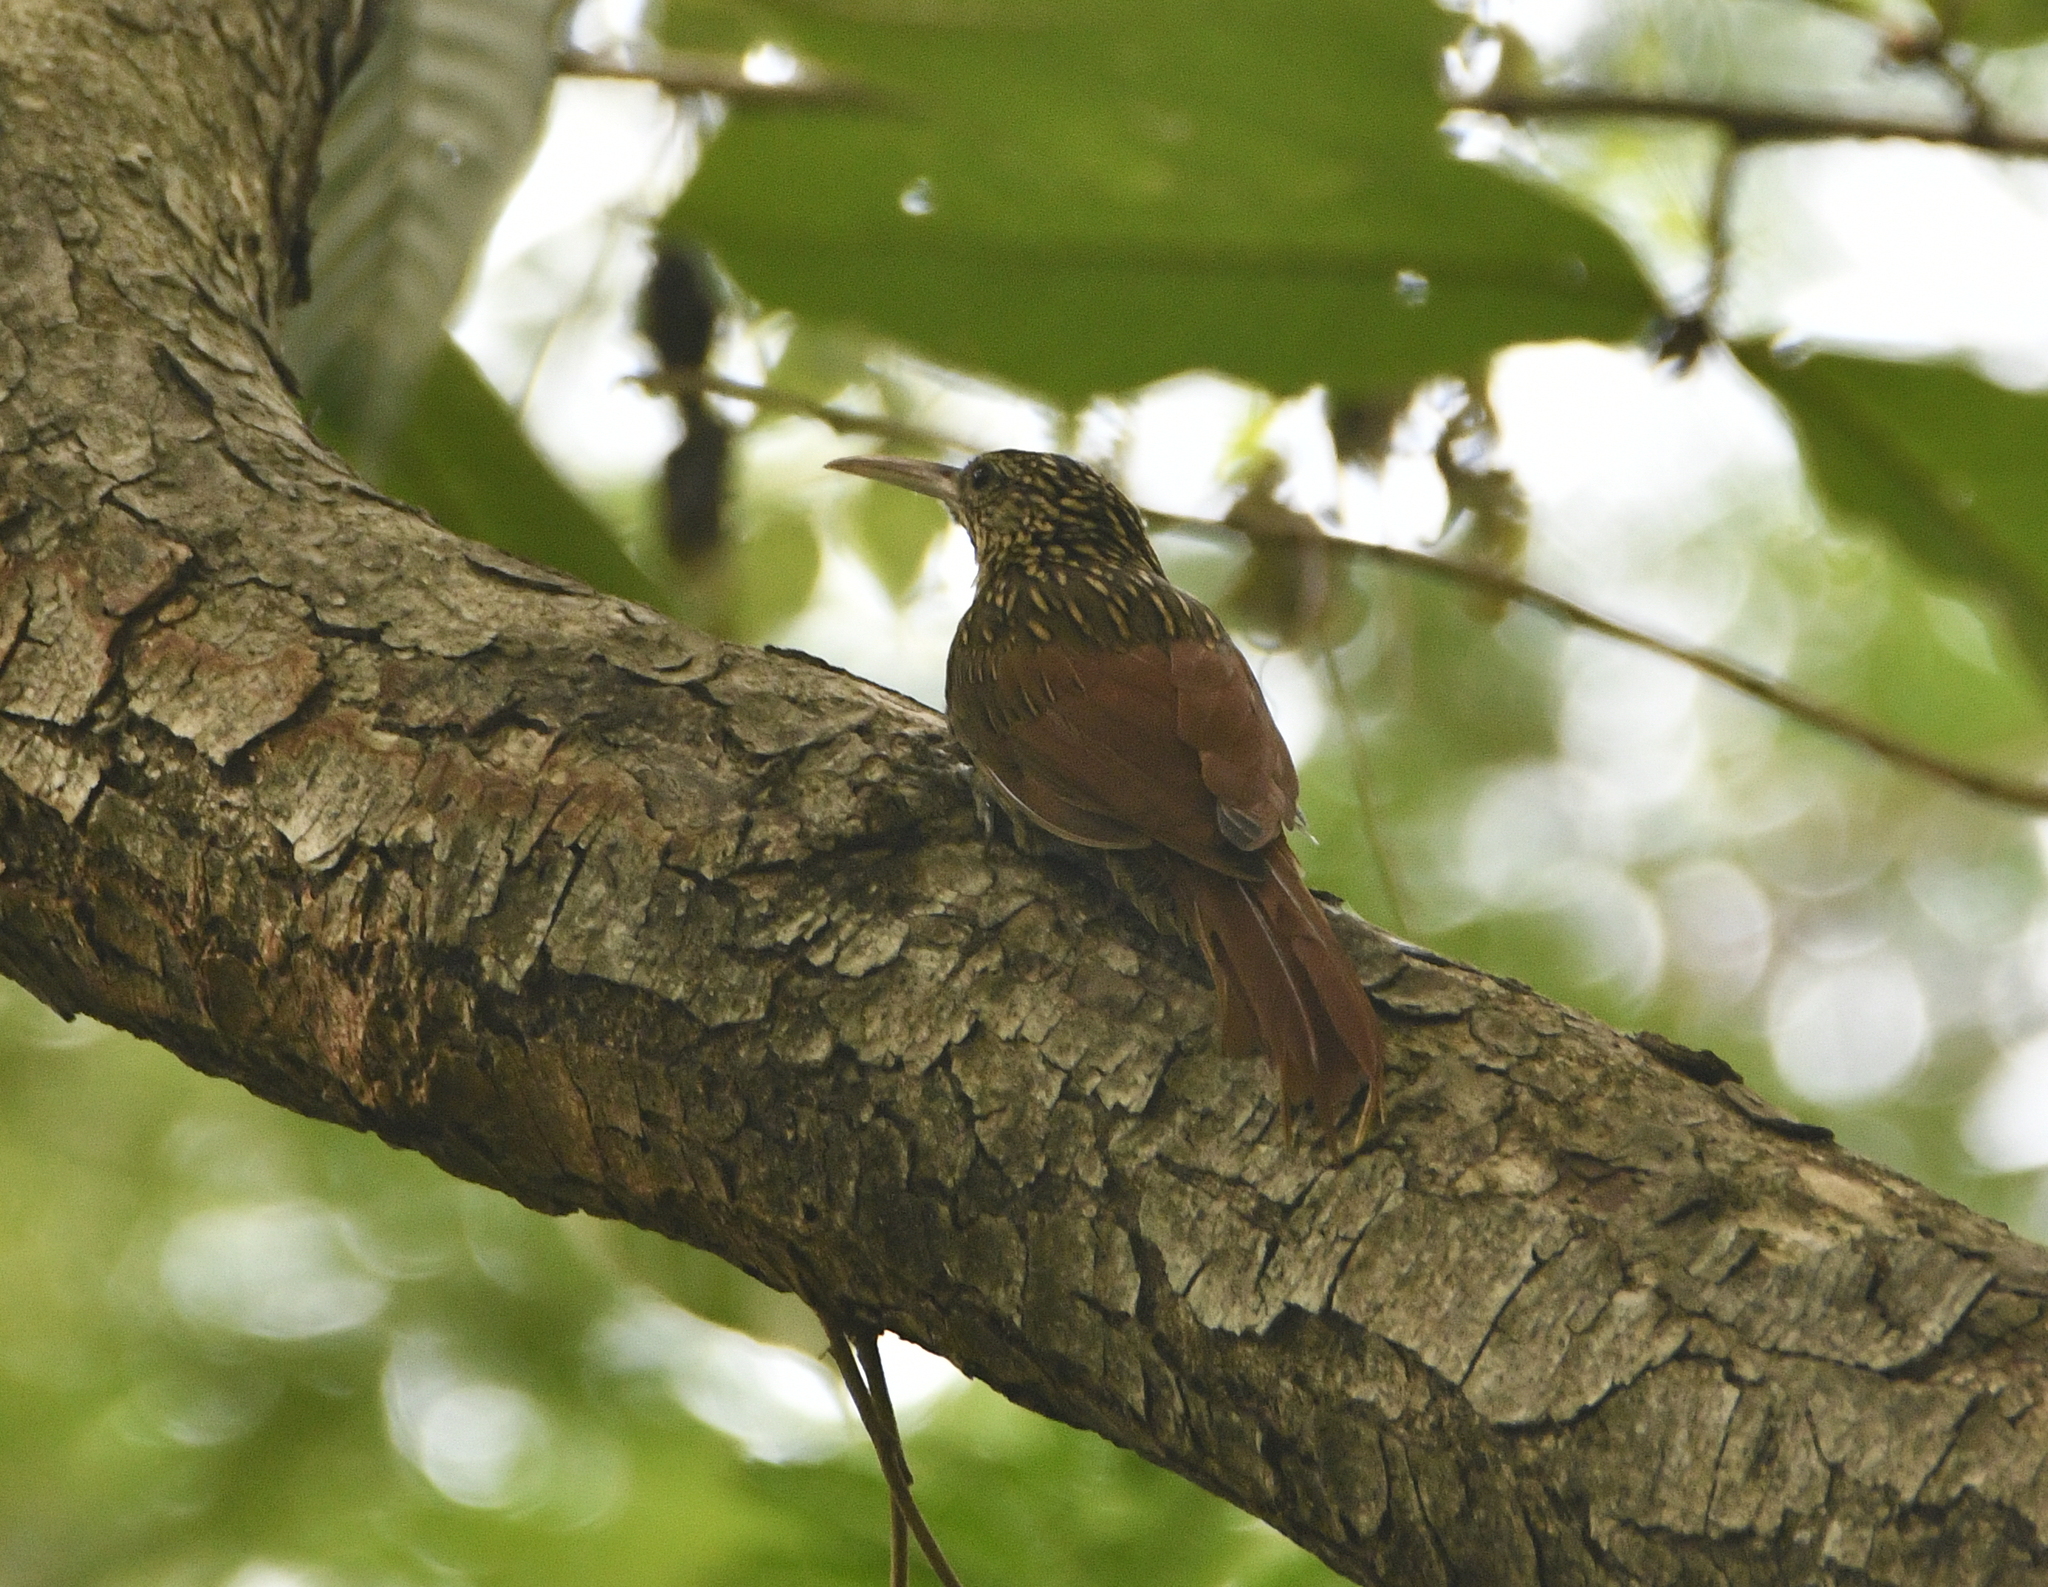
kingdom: Animalia
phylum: Chordata
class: Aves
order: Passeriformes
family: Furnariidae
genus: Xiphorhynchus
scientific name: Xiphorhynchus flavigaster
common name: Ivory-billed woodcreeper
